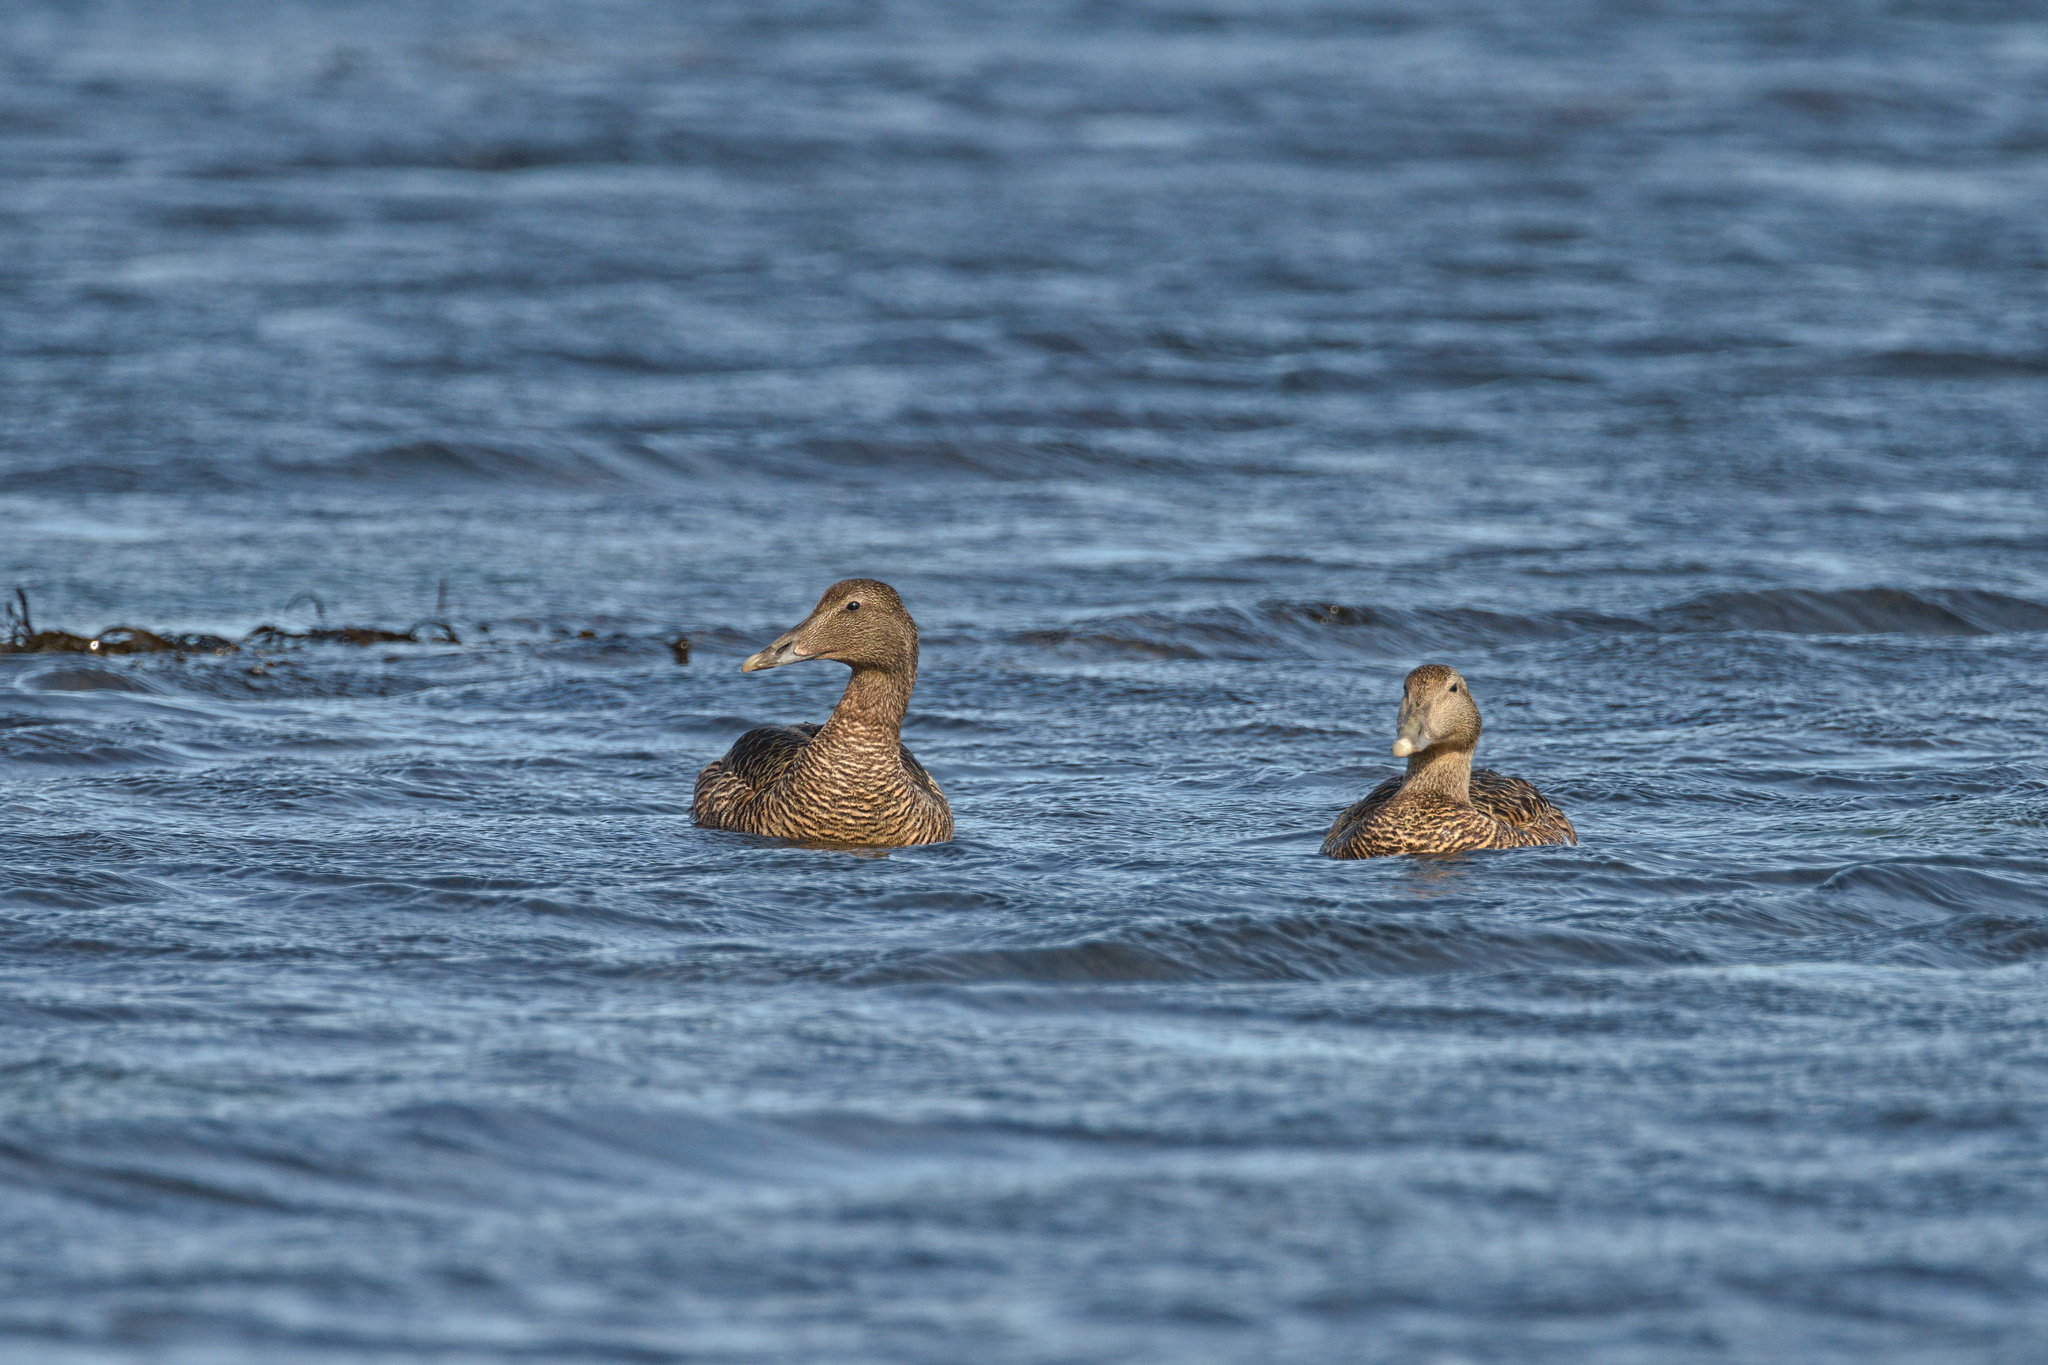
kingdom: Animalia
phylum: Chordata
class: Aves
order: Anseriformes
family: Anatidae
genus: Somateria
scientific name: Somateria mollissima
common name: Common eider
